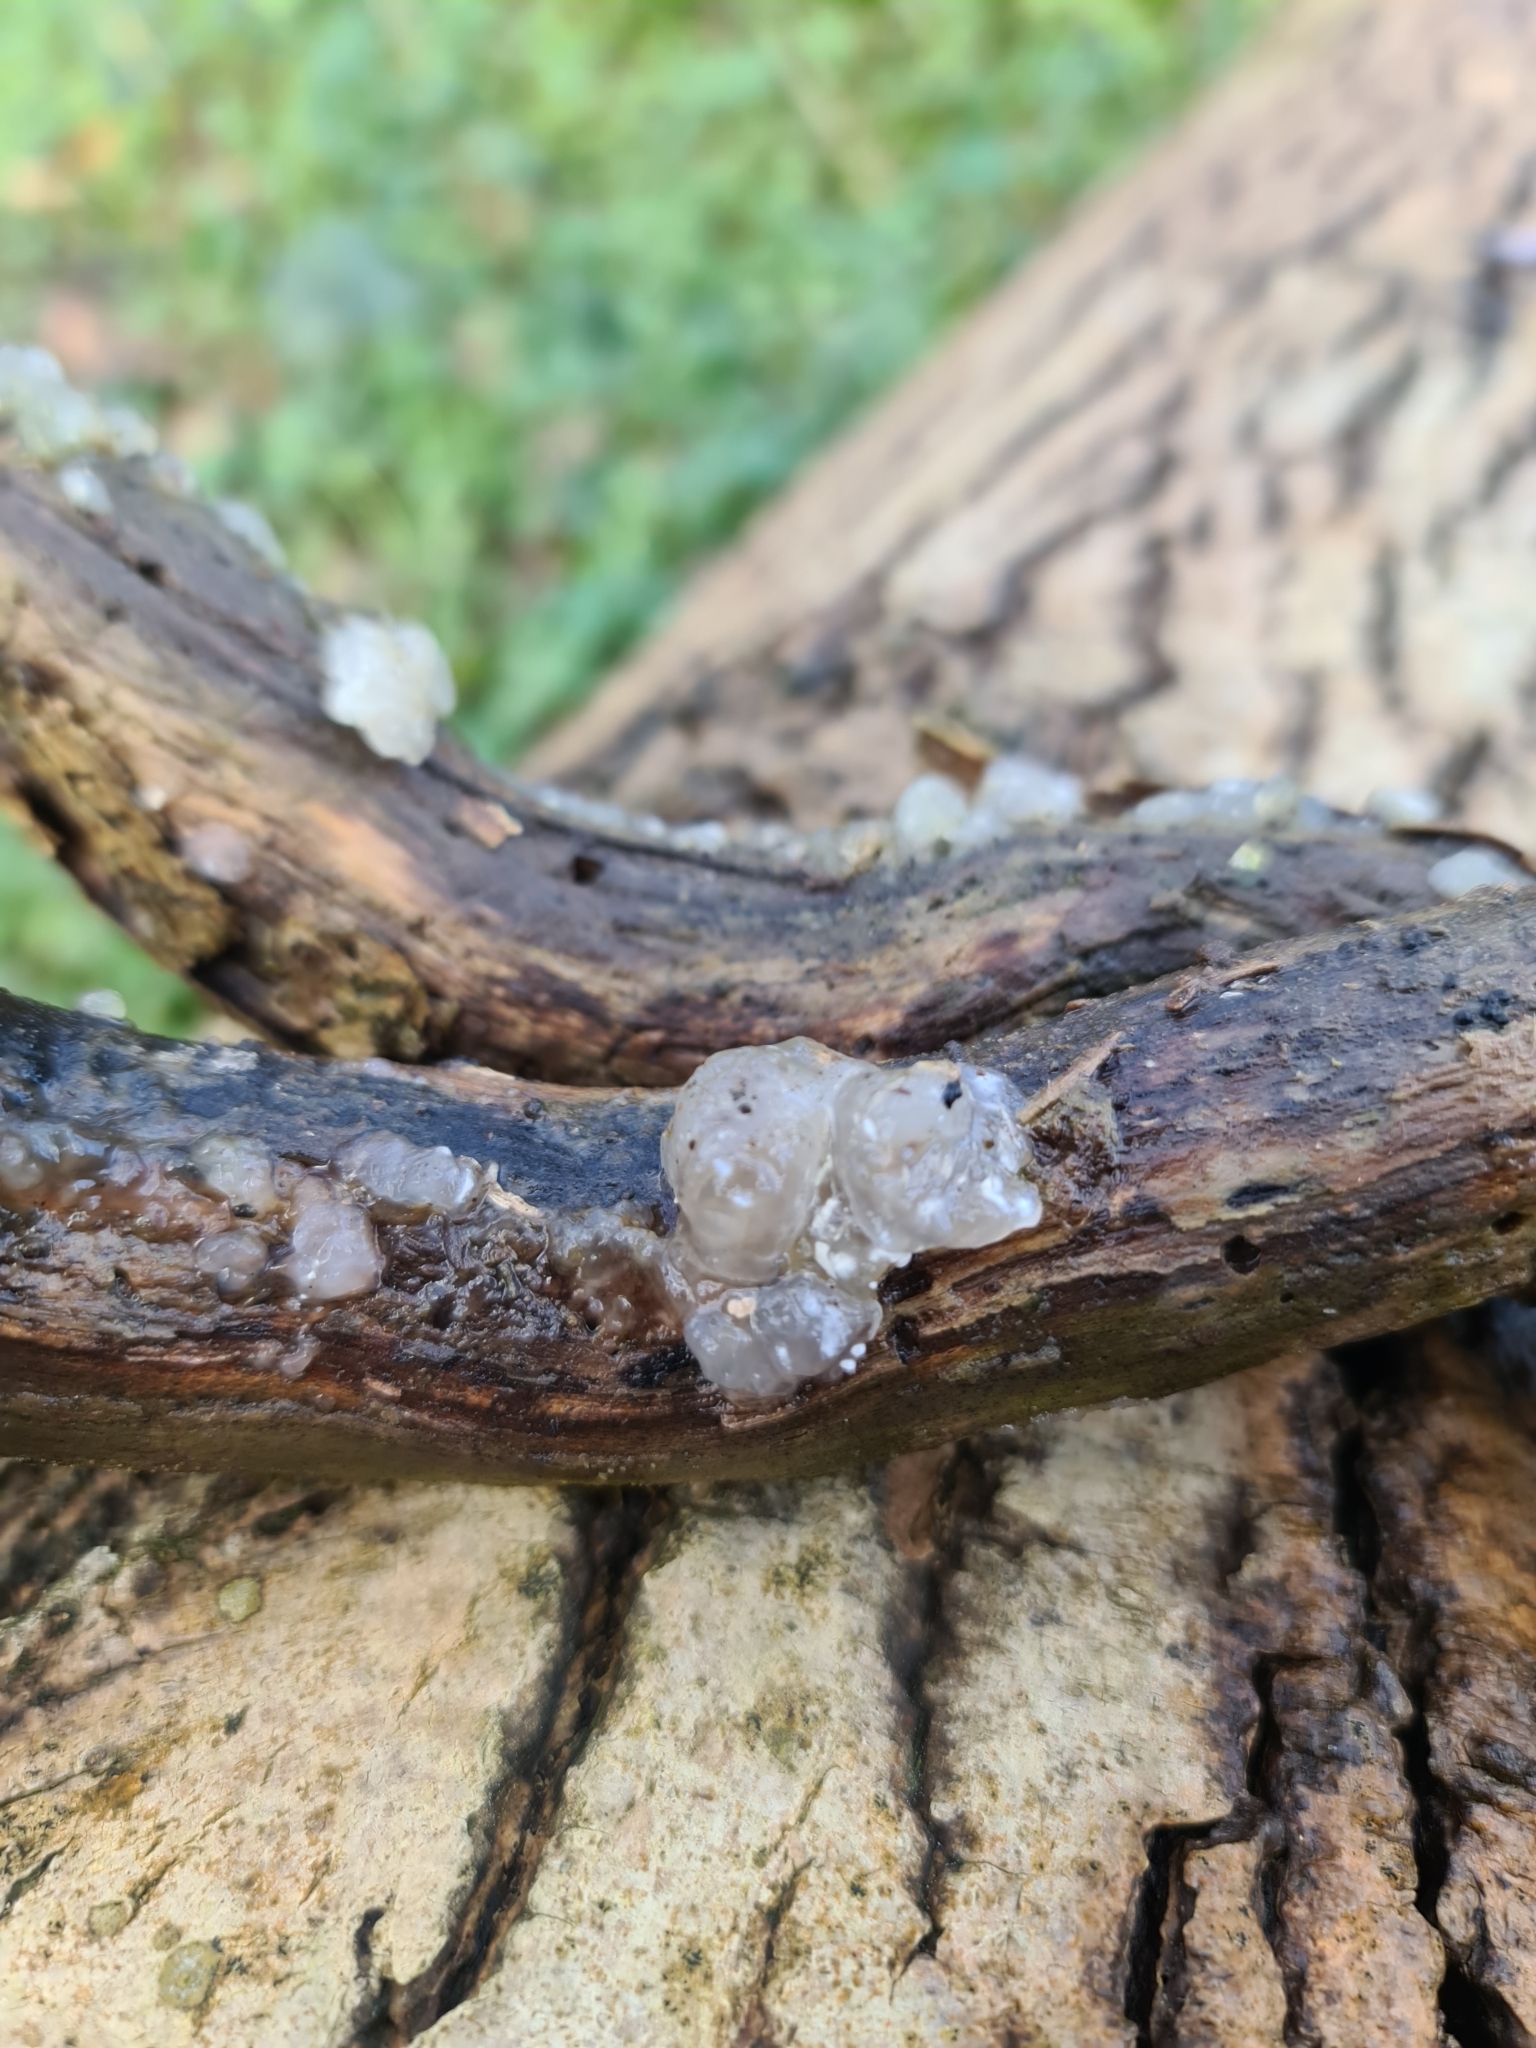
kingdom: Fungi
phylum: Basidiomycota
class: Agaricomycetes
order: Auriculariales
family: Hyaloriaceae
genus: Myxarium
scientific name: Myxarium nucleatum
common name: Crystal brain fungus
